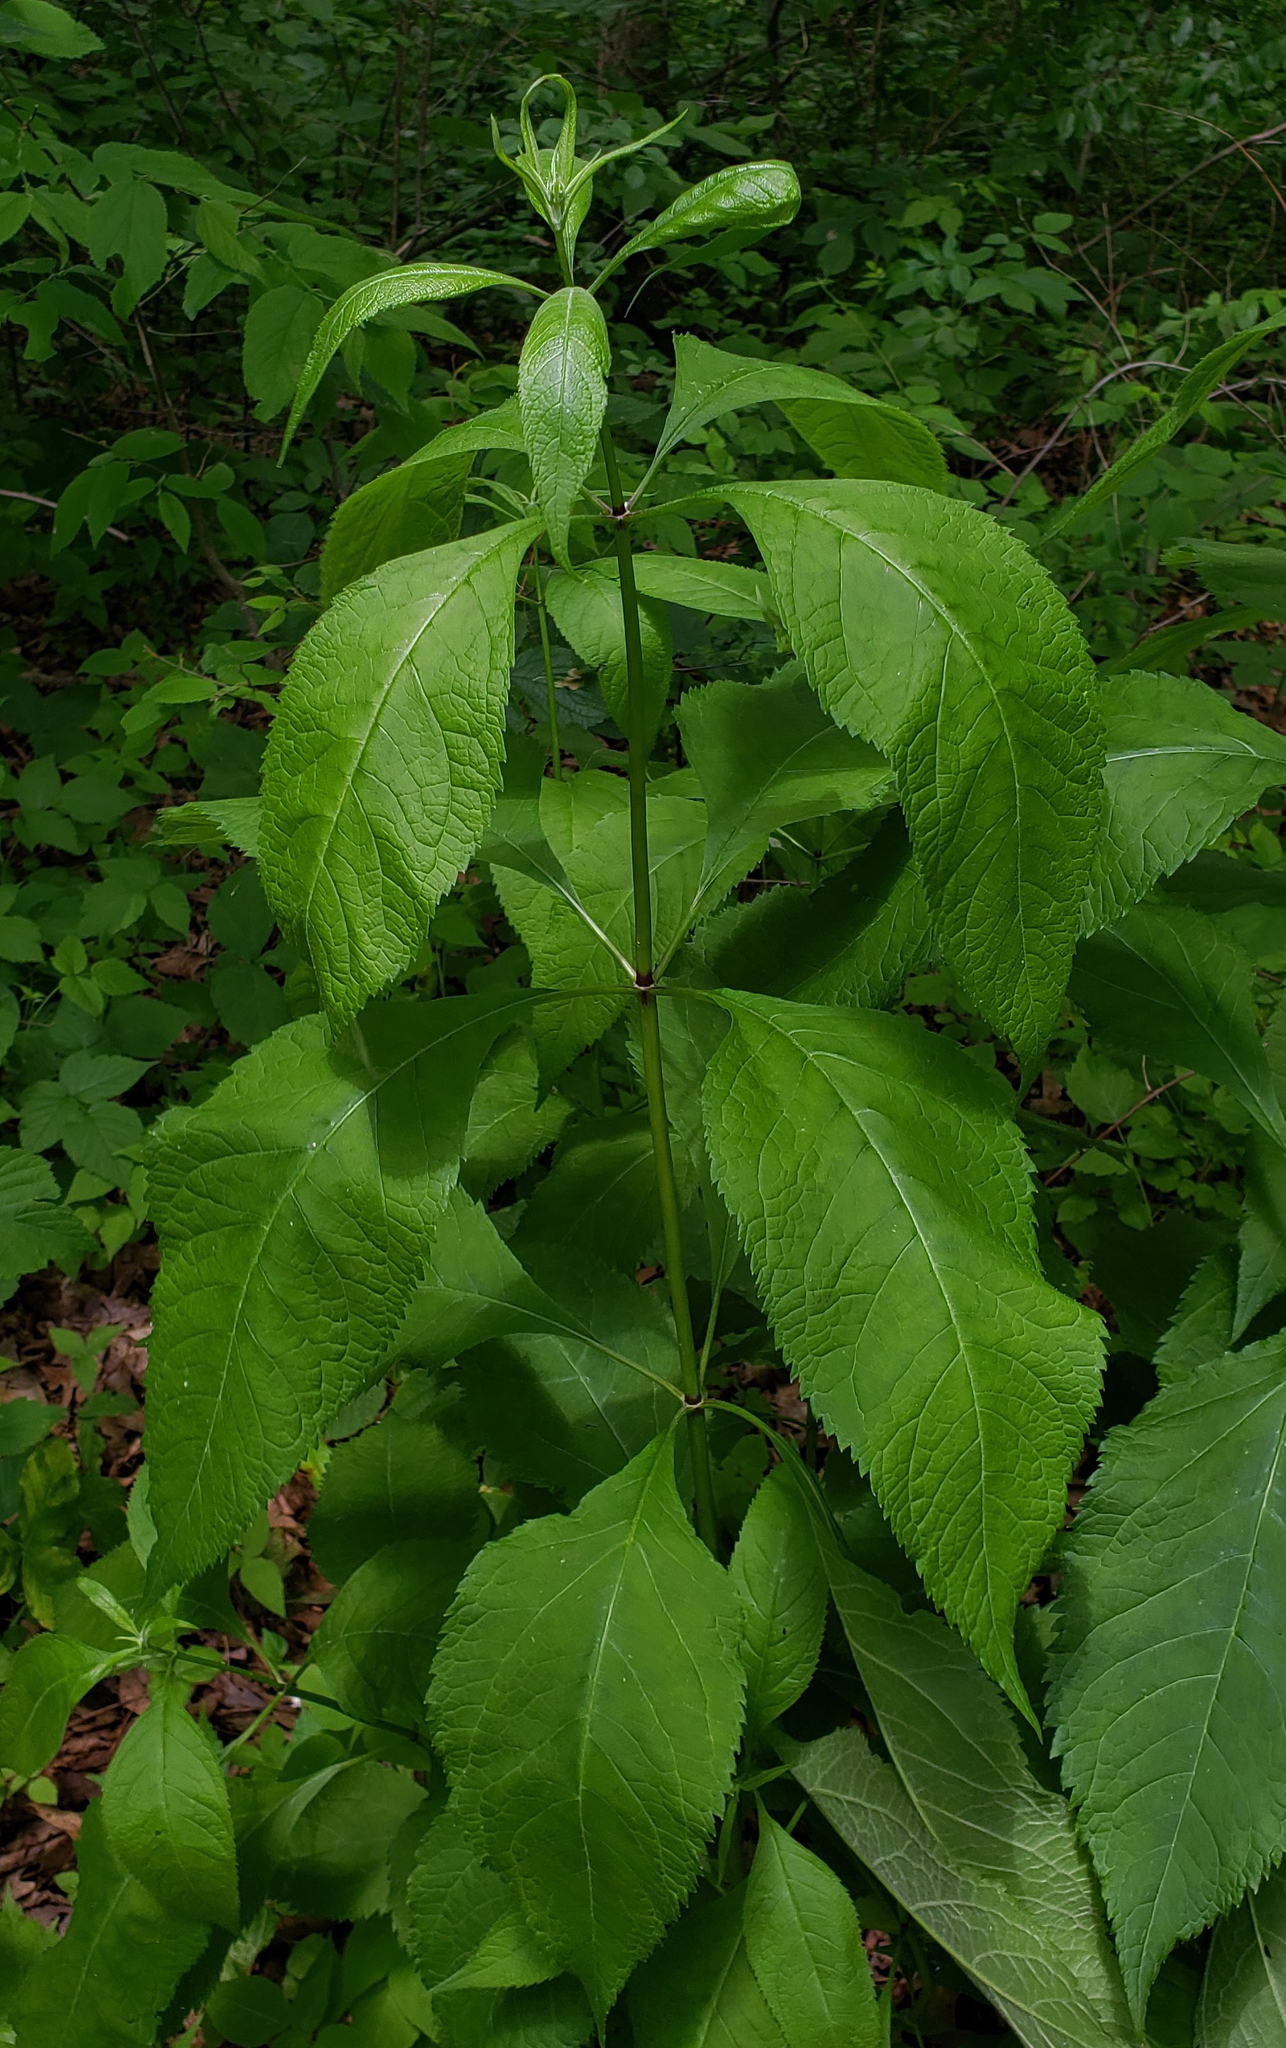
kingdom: Plantae
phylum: Tracheophyta
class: Magnoliopsida
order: Asterales
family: Asteraceae
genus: Eutrochium
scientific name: Eutrochium purpureum
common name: Gravelroot
